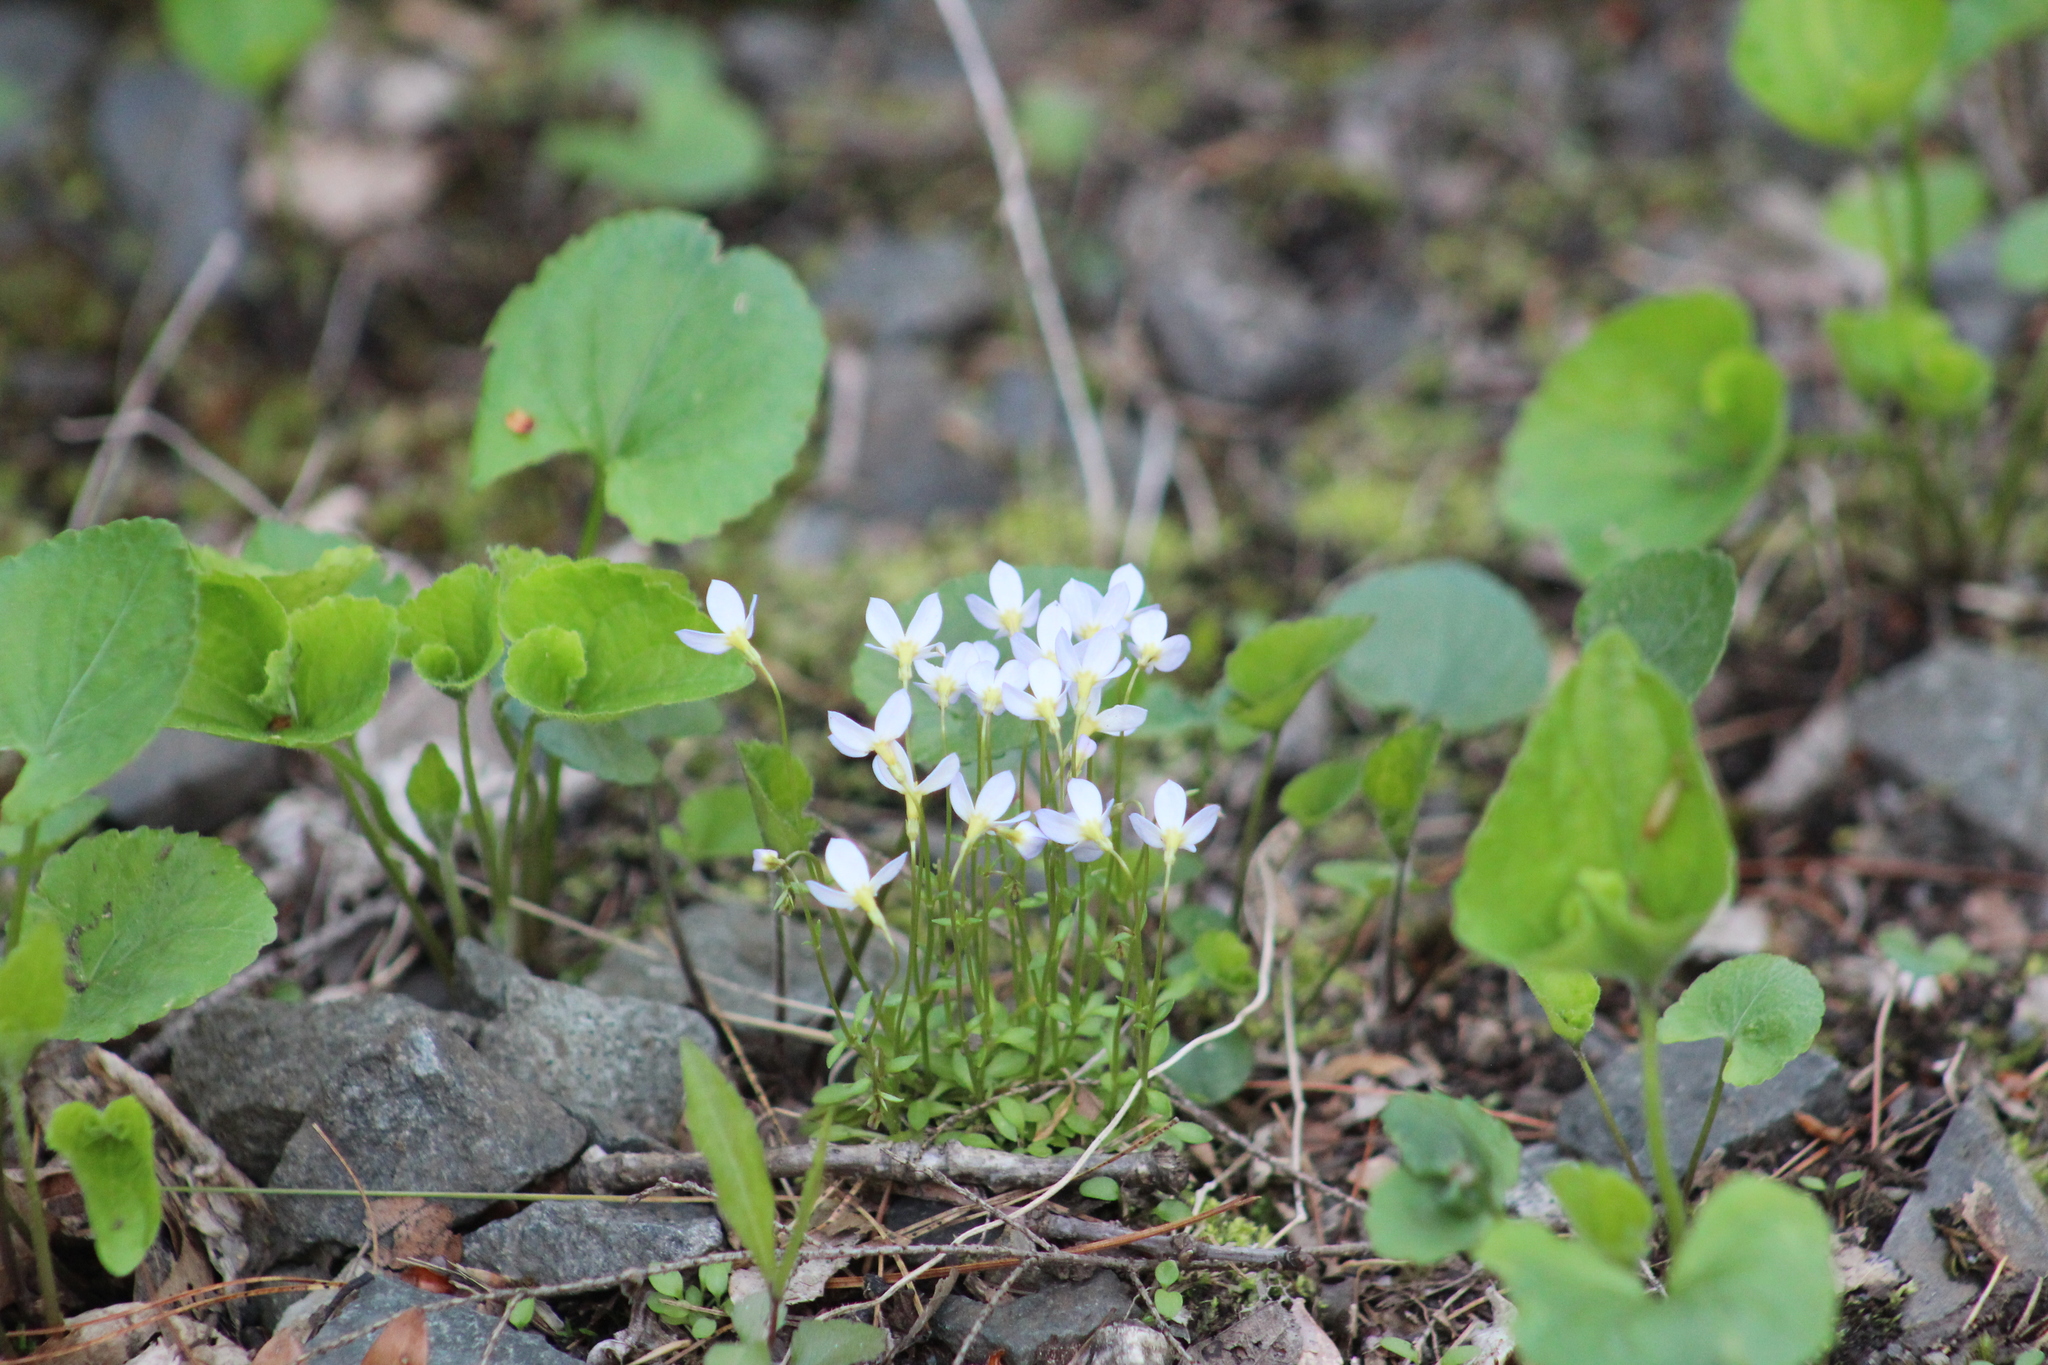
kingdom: Plantae
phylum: Tracheophyta
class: Magnoliopsida
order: Gentianales
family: Rubiaceae
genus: Houstonia
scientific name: Houstonia caerulea
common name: Bluets
